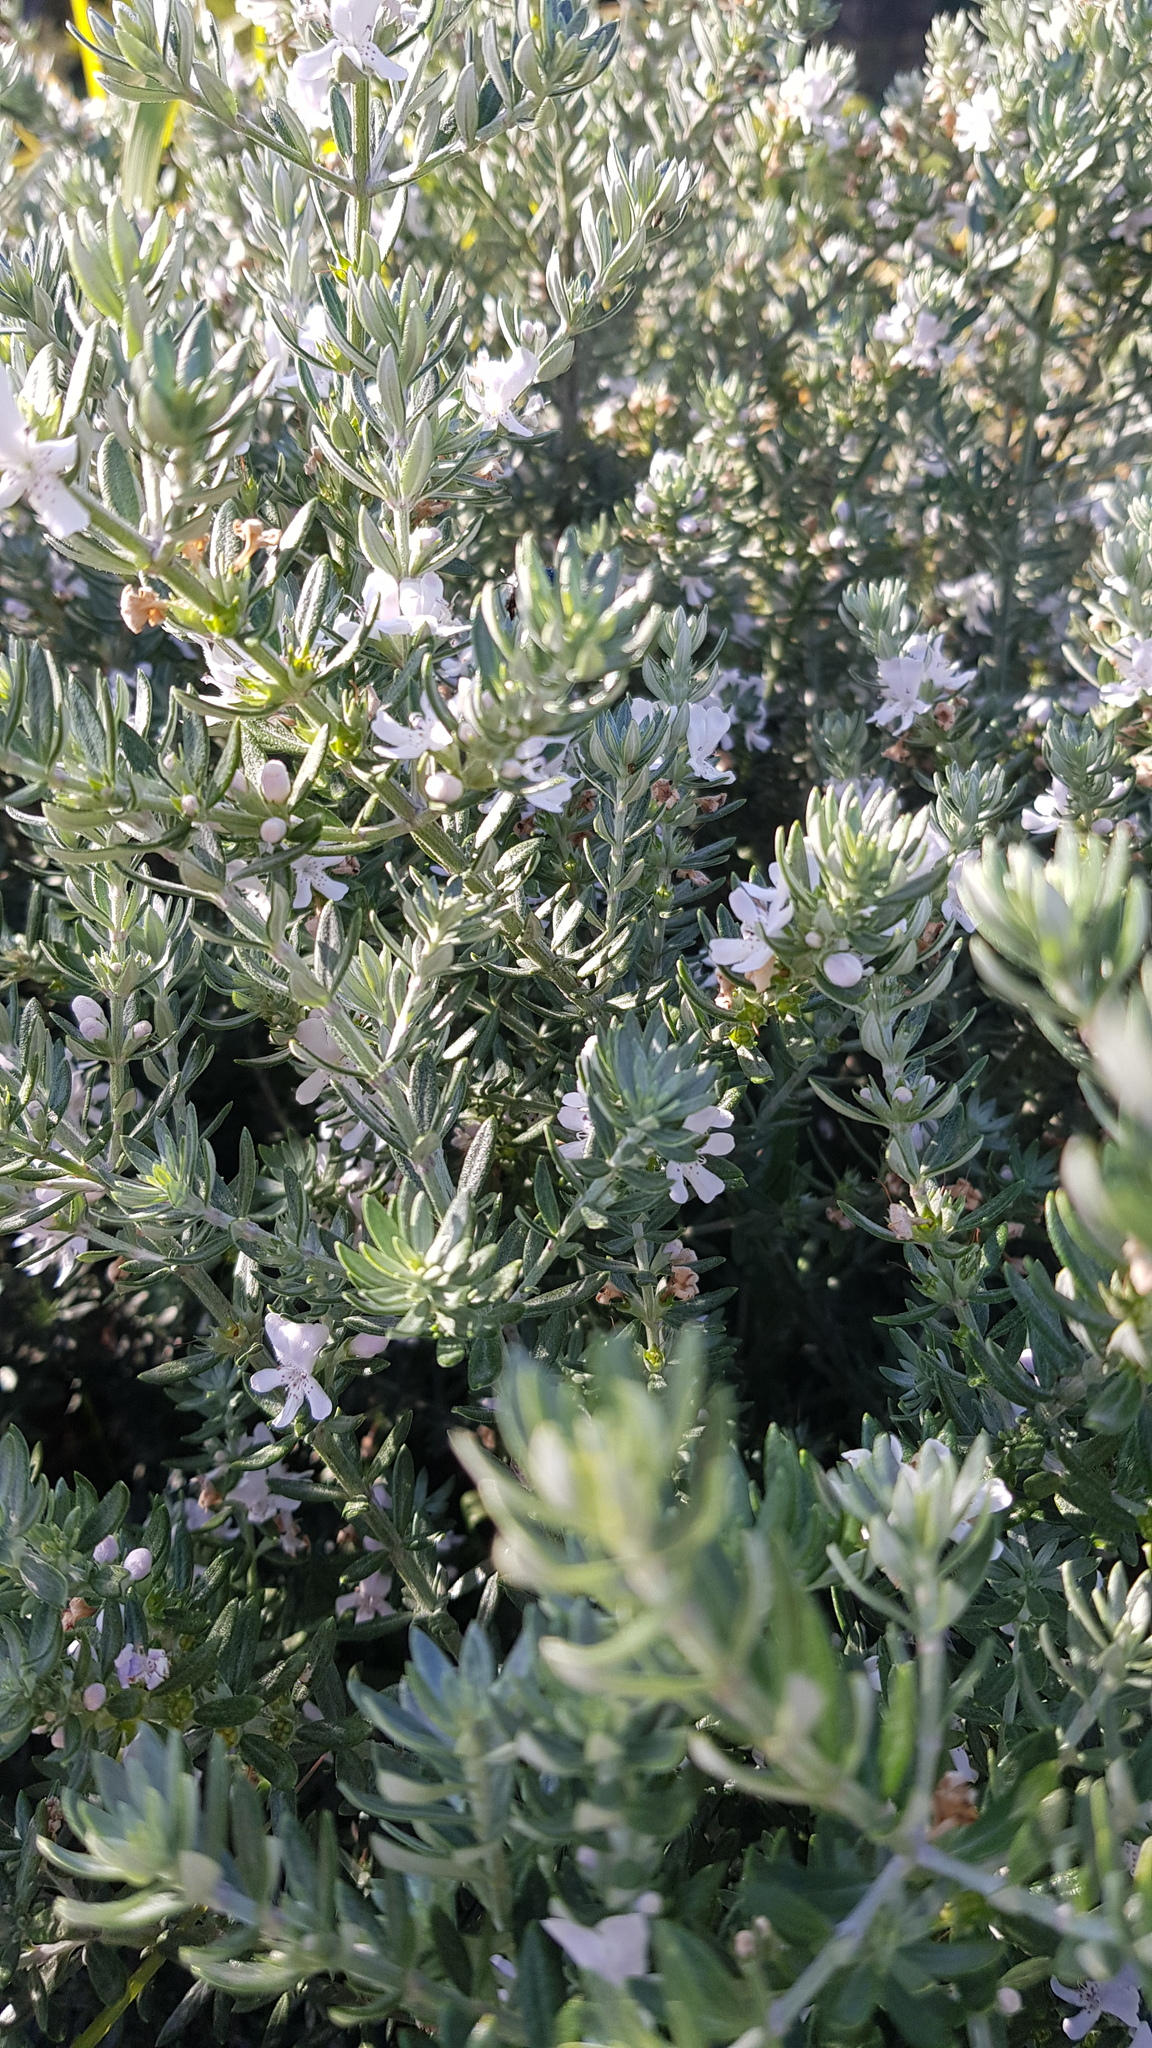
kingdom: Animalia
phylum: Arthropoda
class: Insecta
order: Hymenoptera
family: Apidae
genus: Xylocopa
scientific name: Xylocopa aeratus
